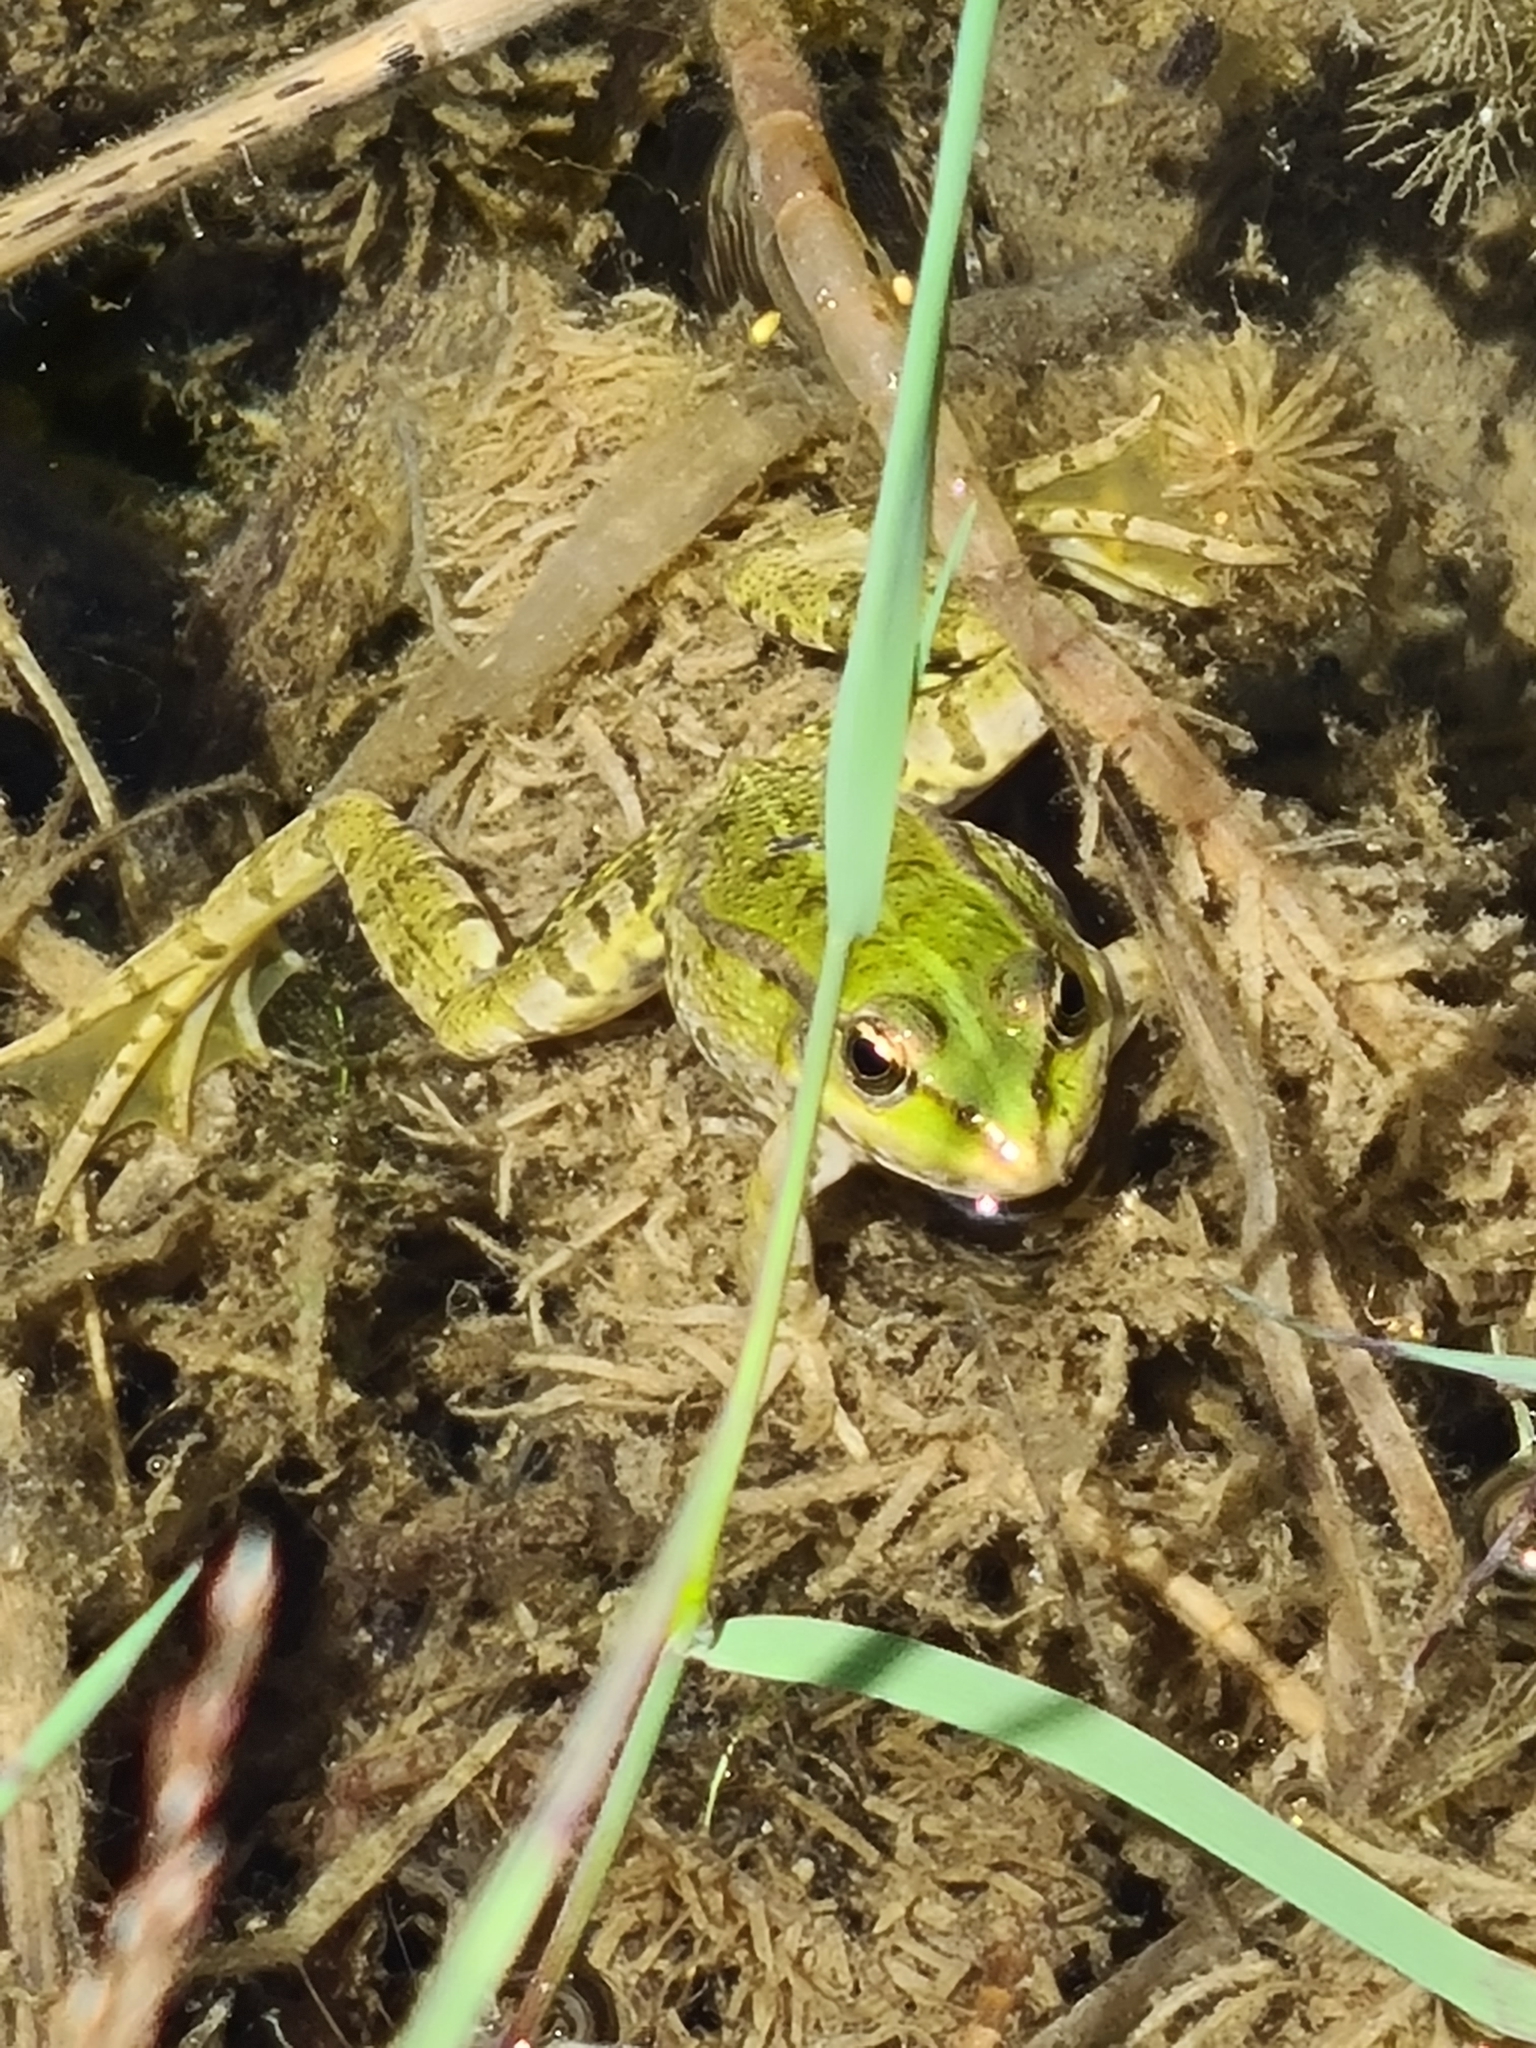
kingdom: Animalia
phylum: Chordata
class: Amphibia
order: Anura
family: Ranidae
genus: Pelophylax
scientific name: Pelophylax
